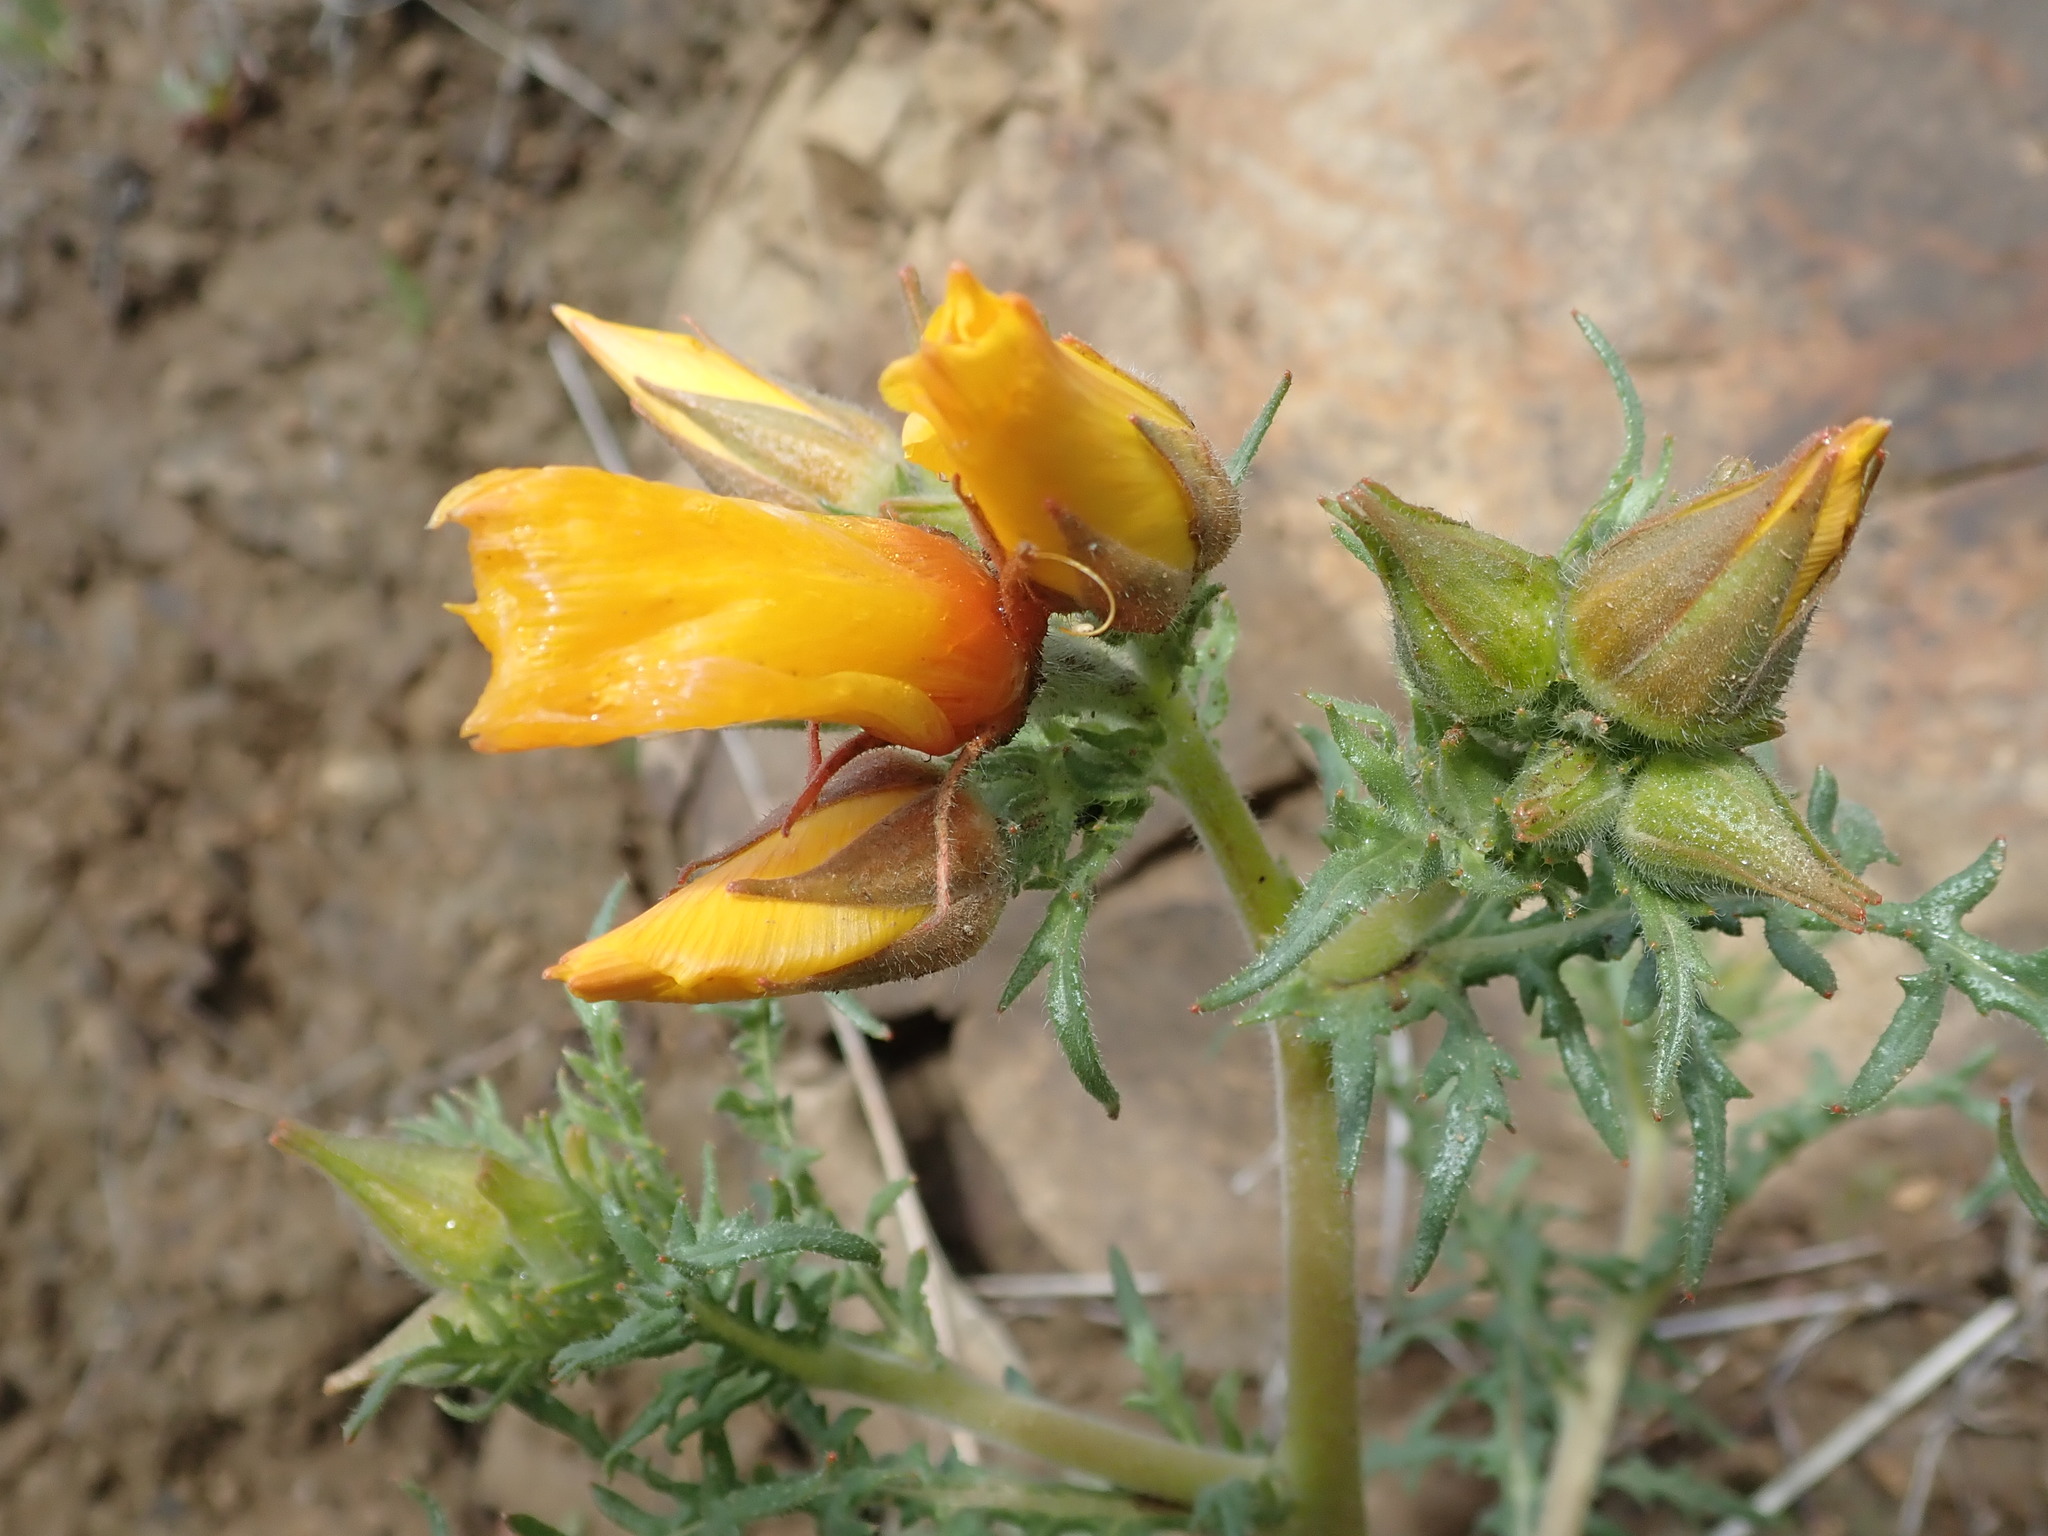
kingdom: Plantae
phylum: Tracheophyta
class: Magnoliopsida
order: Cornales
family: Loasaceae
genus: Mentzelia
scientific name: Mentzelia lindleyi
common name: Golden bartonia
